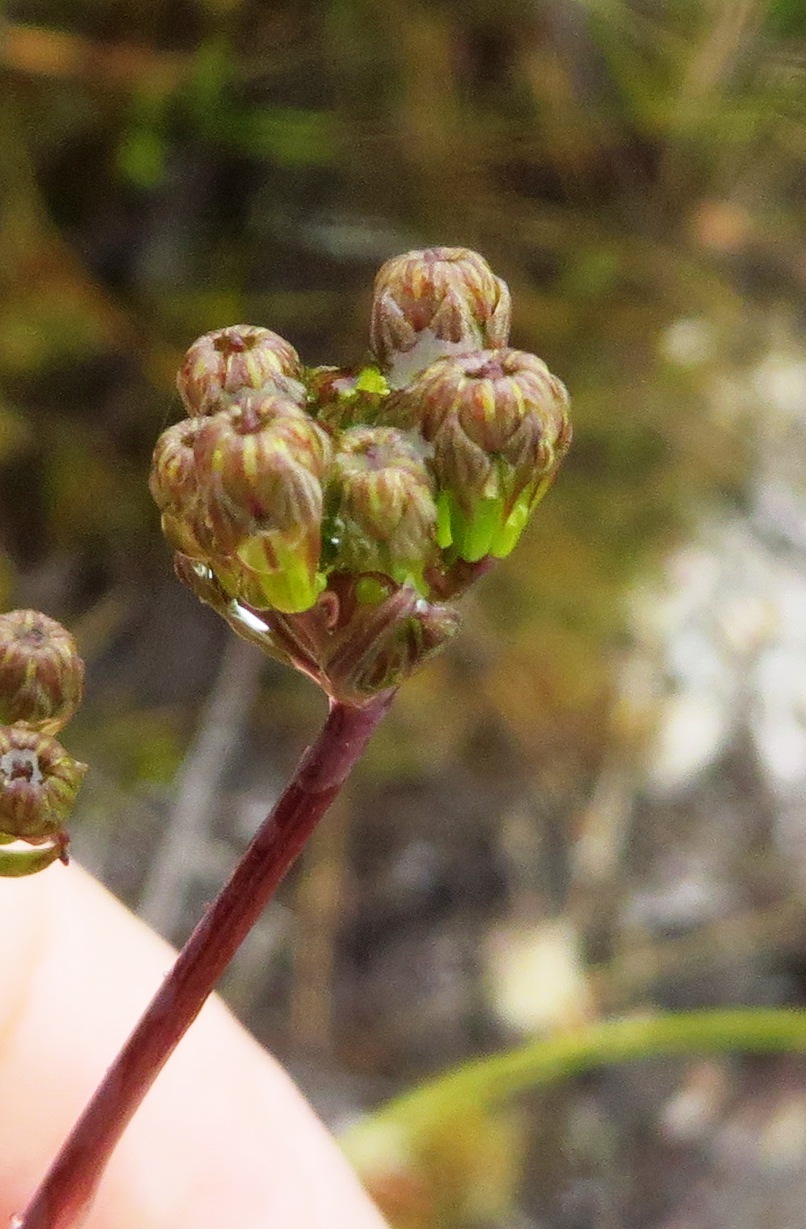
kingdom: Plantae
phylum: Tracheophyta
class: Magnoliopsida
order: Apiales
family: Apiaceae
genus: Lichtensteinia
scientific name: Lichtensteinia trifida
